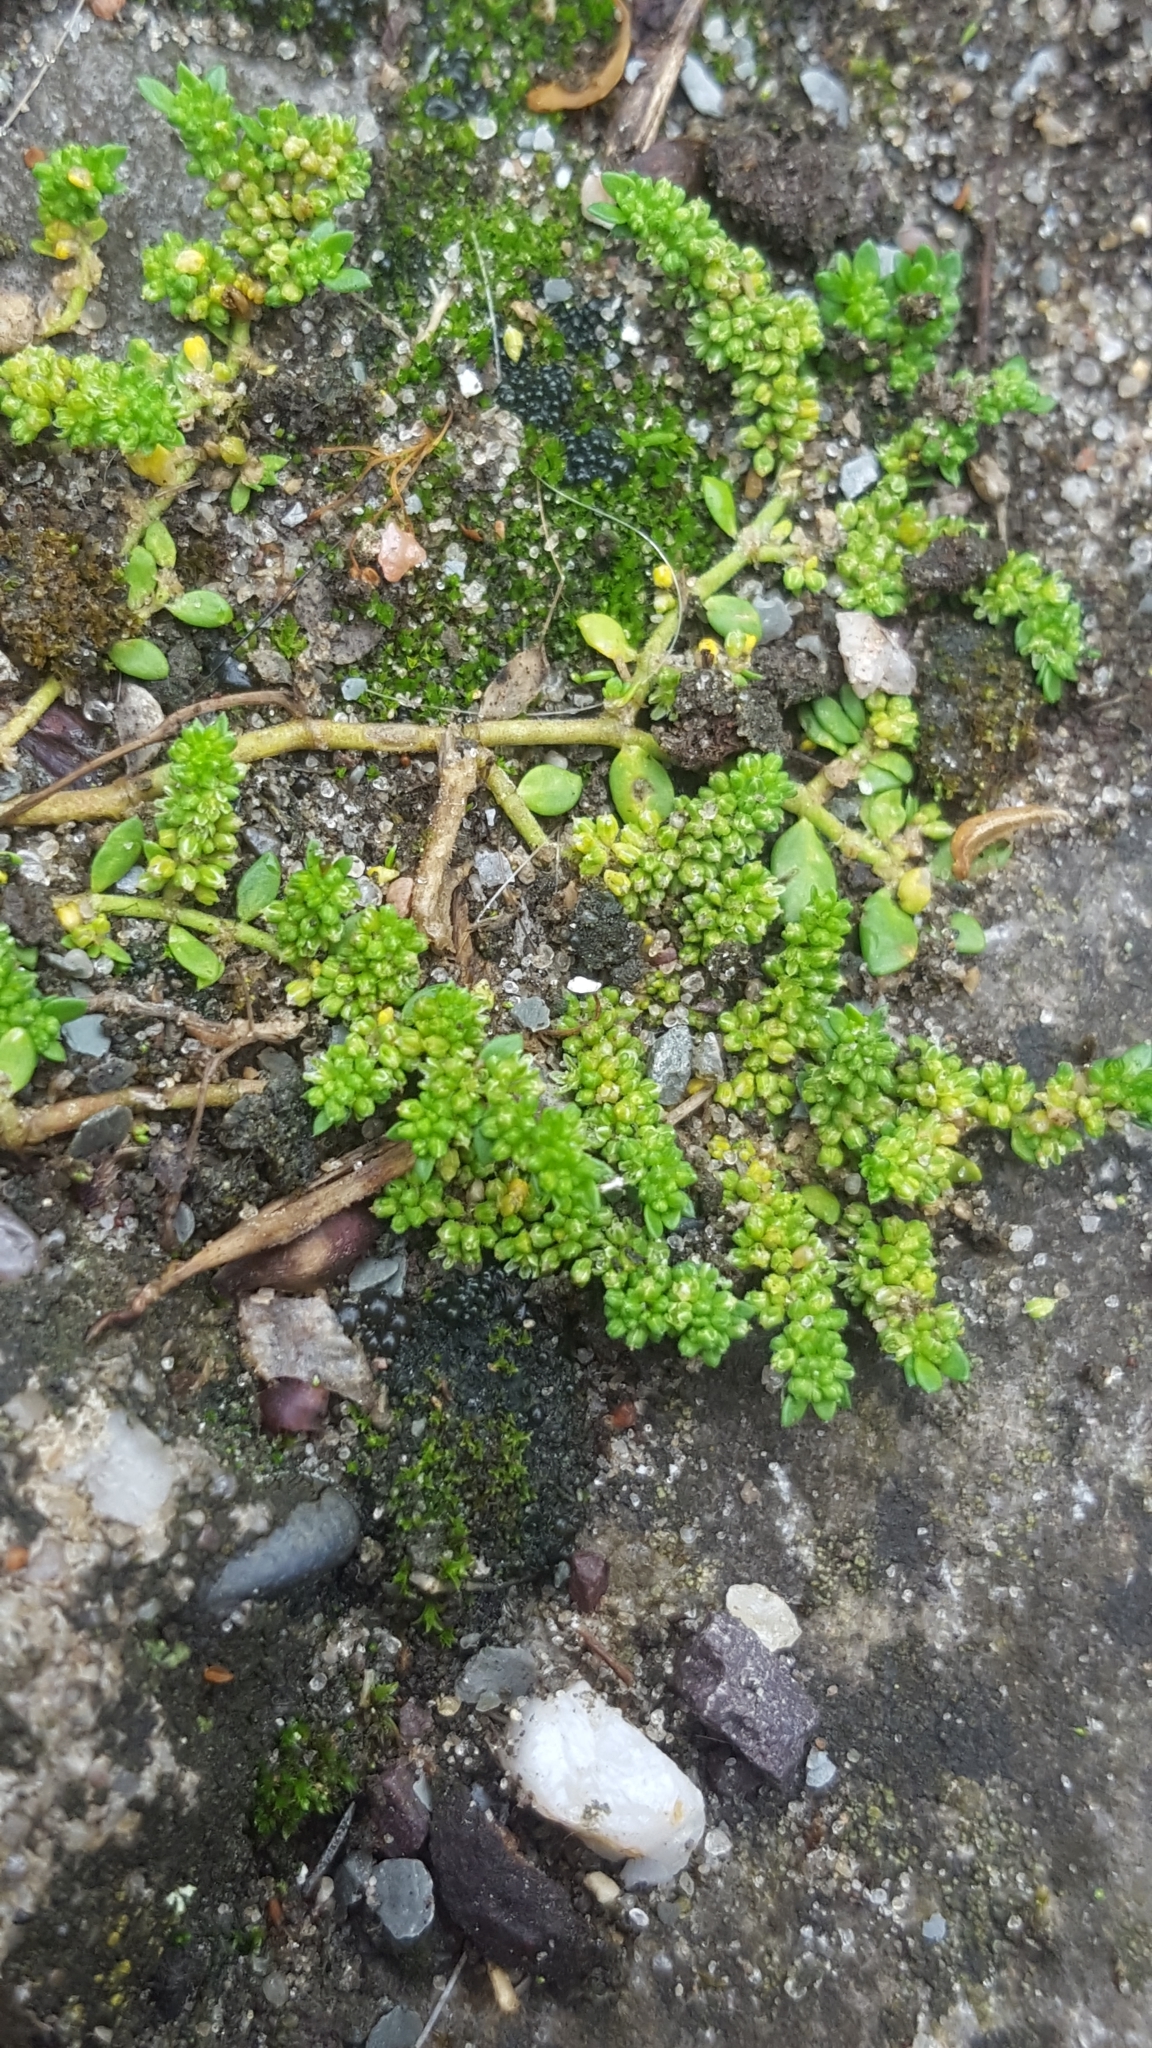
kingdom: Plantae
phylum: Tracheophyta
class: Magnoliopsida
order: Caryophyllales
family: Caryophyllaceae
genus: Herniaria
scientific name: Herniaria glabra
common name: Smooth rupturewort
